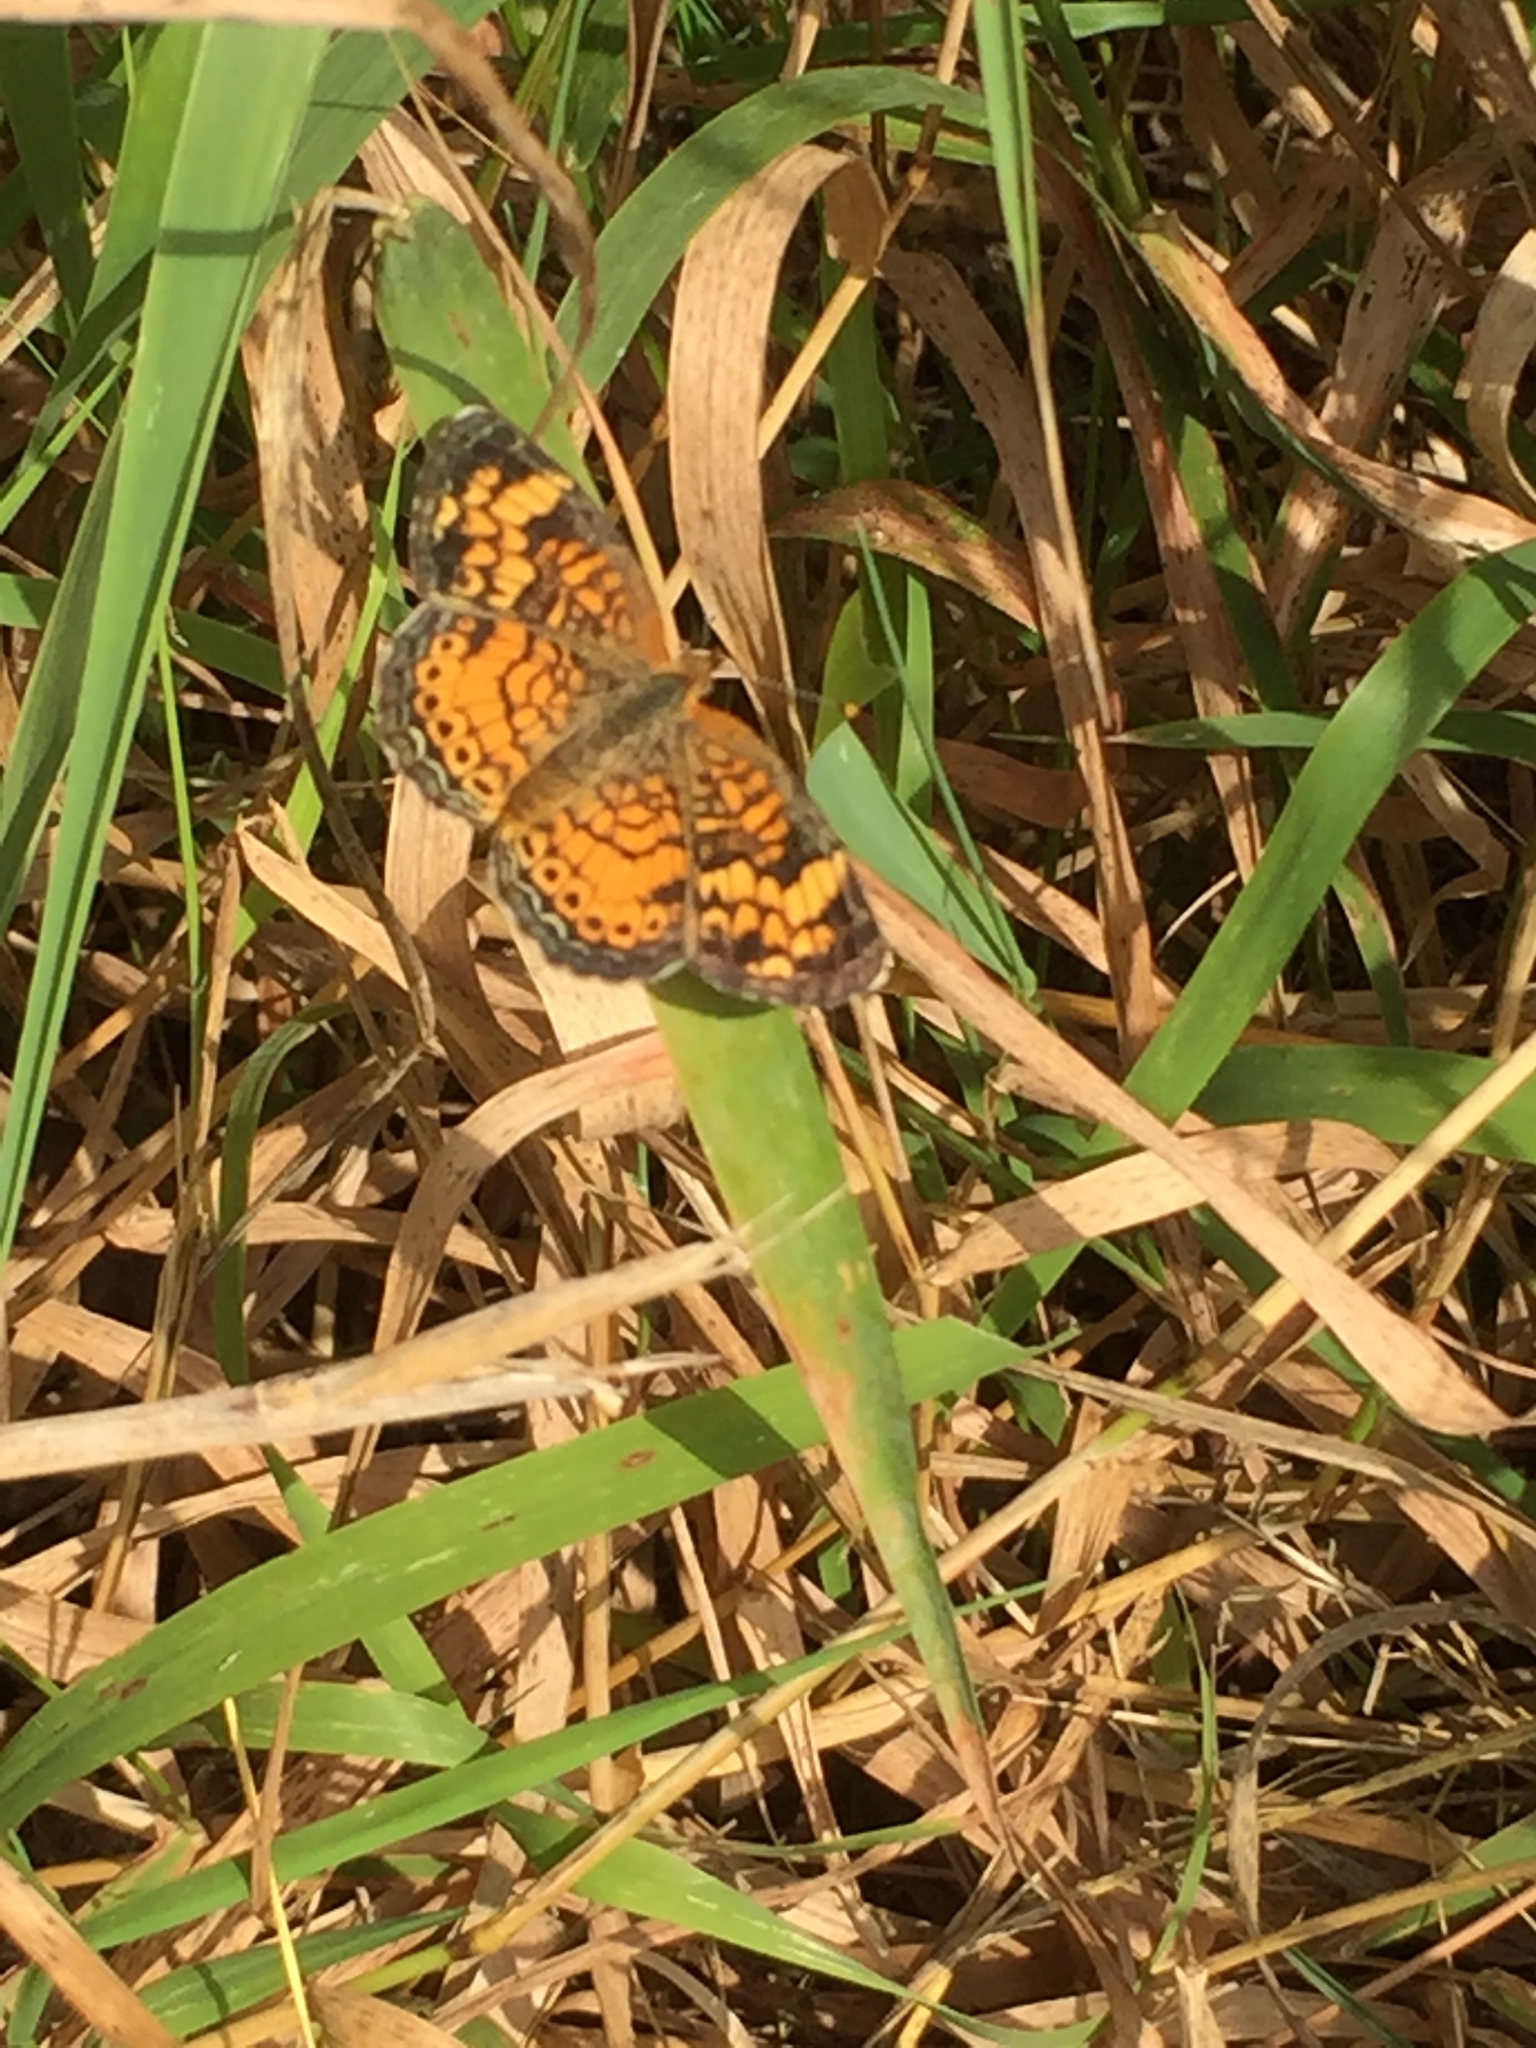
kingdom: Animalia
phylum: Arthropoda
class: Insecta
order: Lepidoptera
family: Nymphalidae
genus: Phyciodes
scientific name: Phyciodes tharos
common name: Pearl crescent
